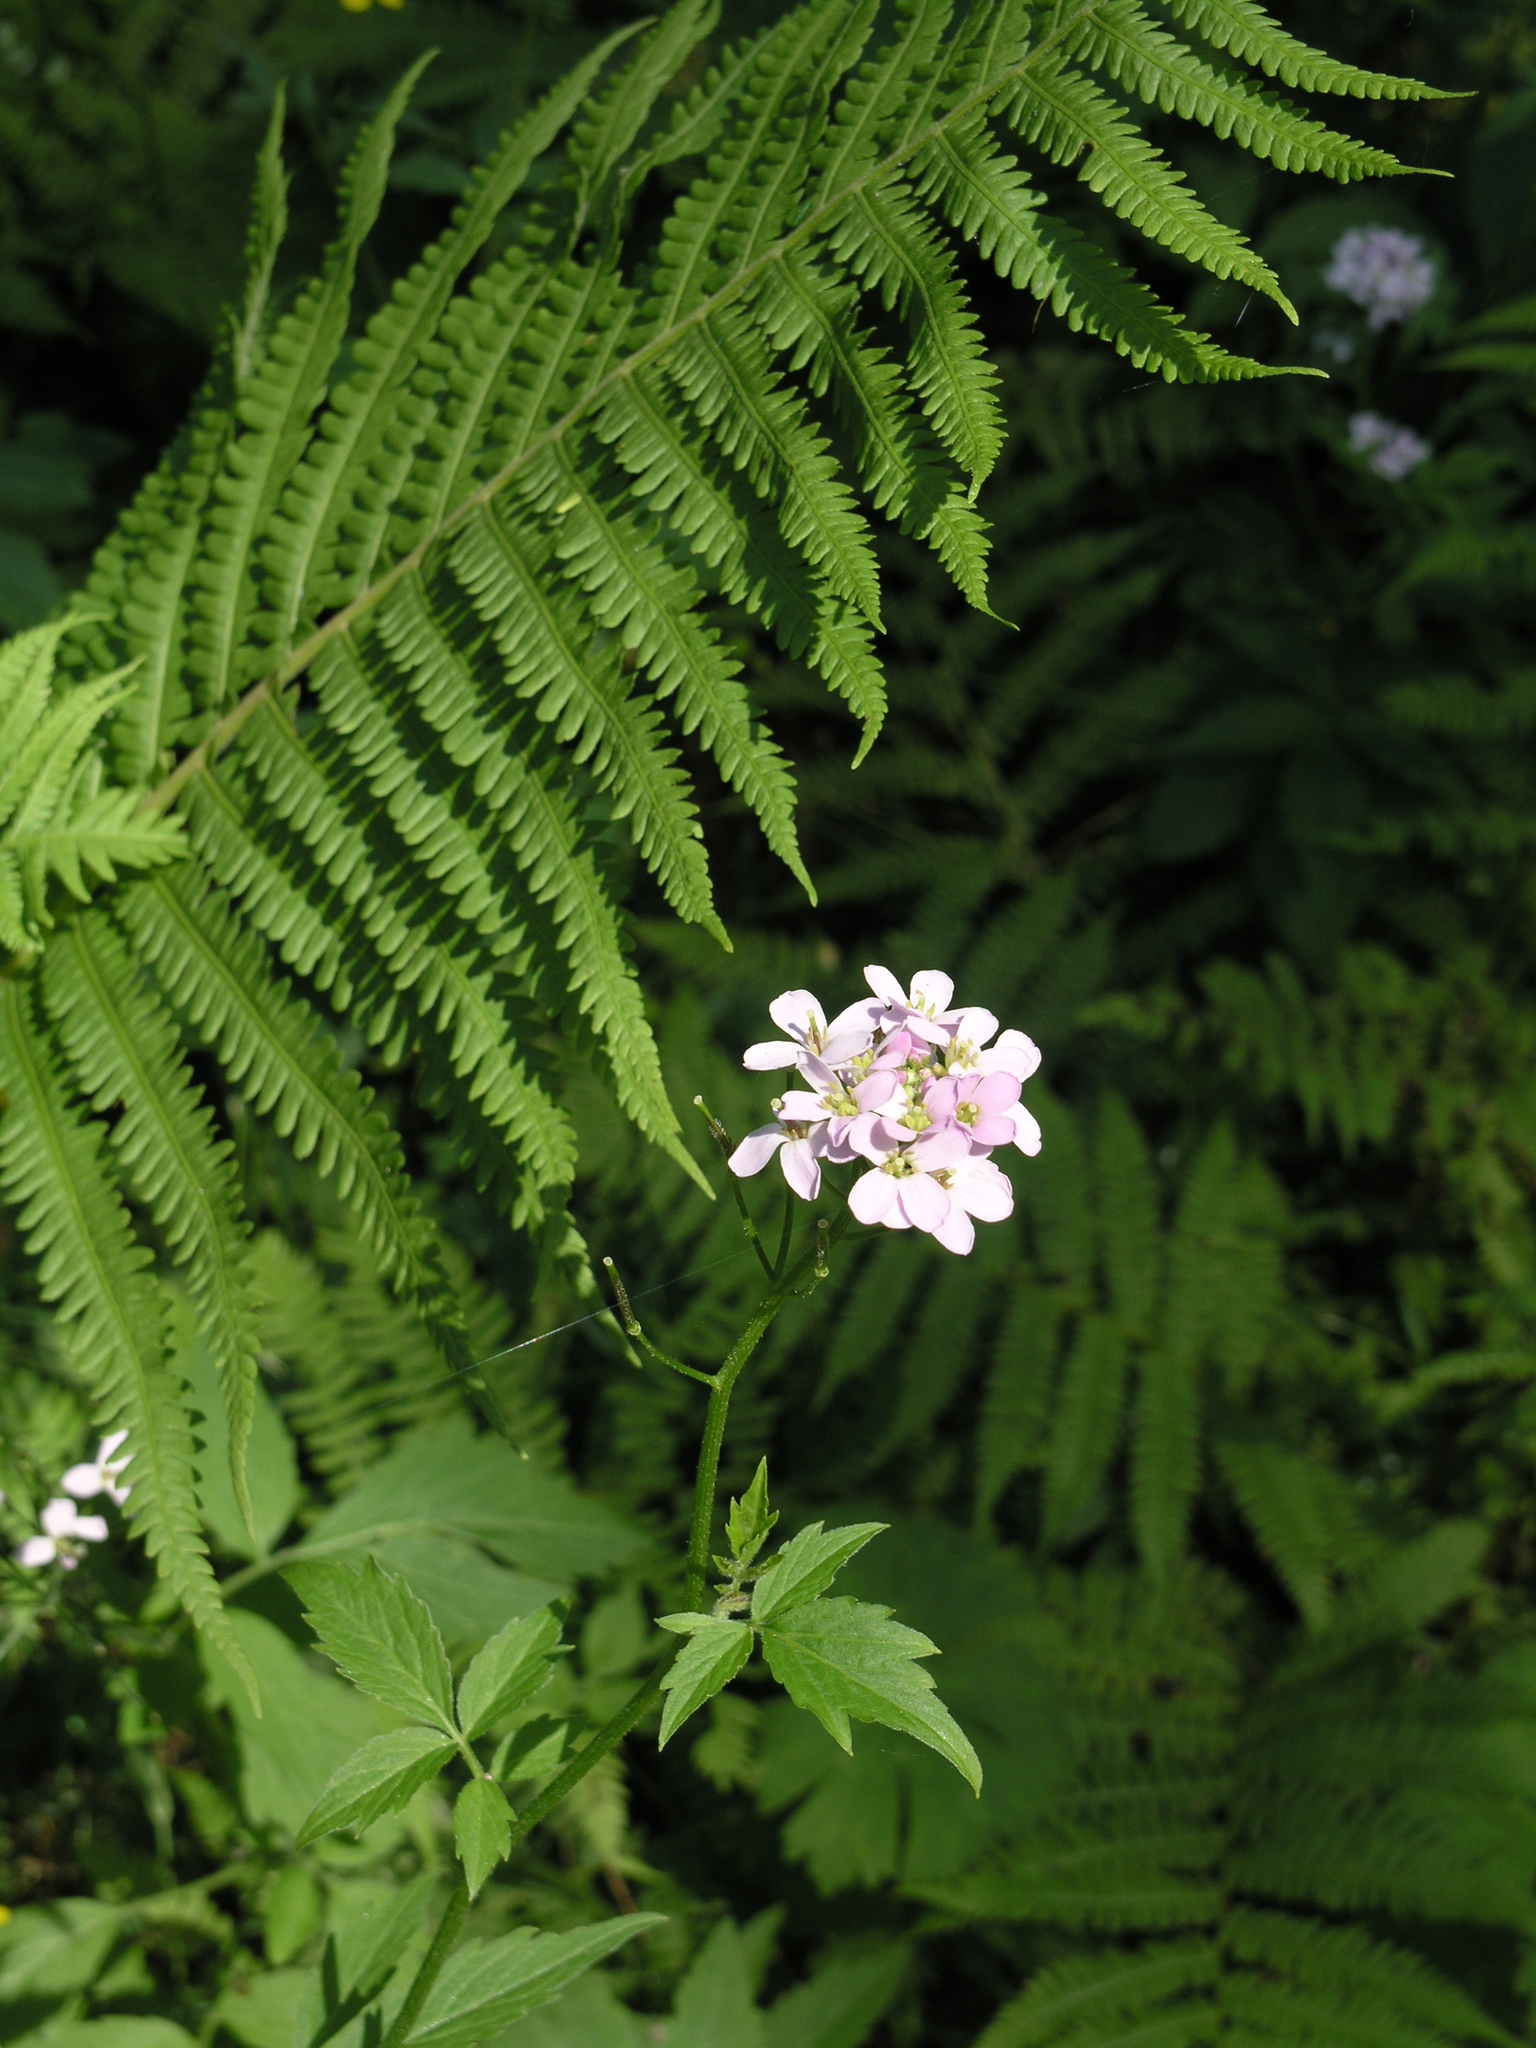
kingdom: Plantae
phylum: Tracheophyta
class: Magnoliopsida
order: Brassicales
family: Brassicaceae
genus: Cardamine
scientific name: Cardamine macrophylla
